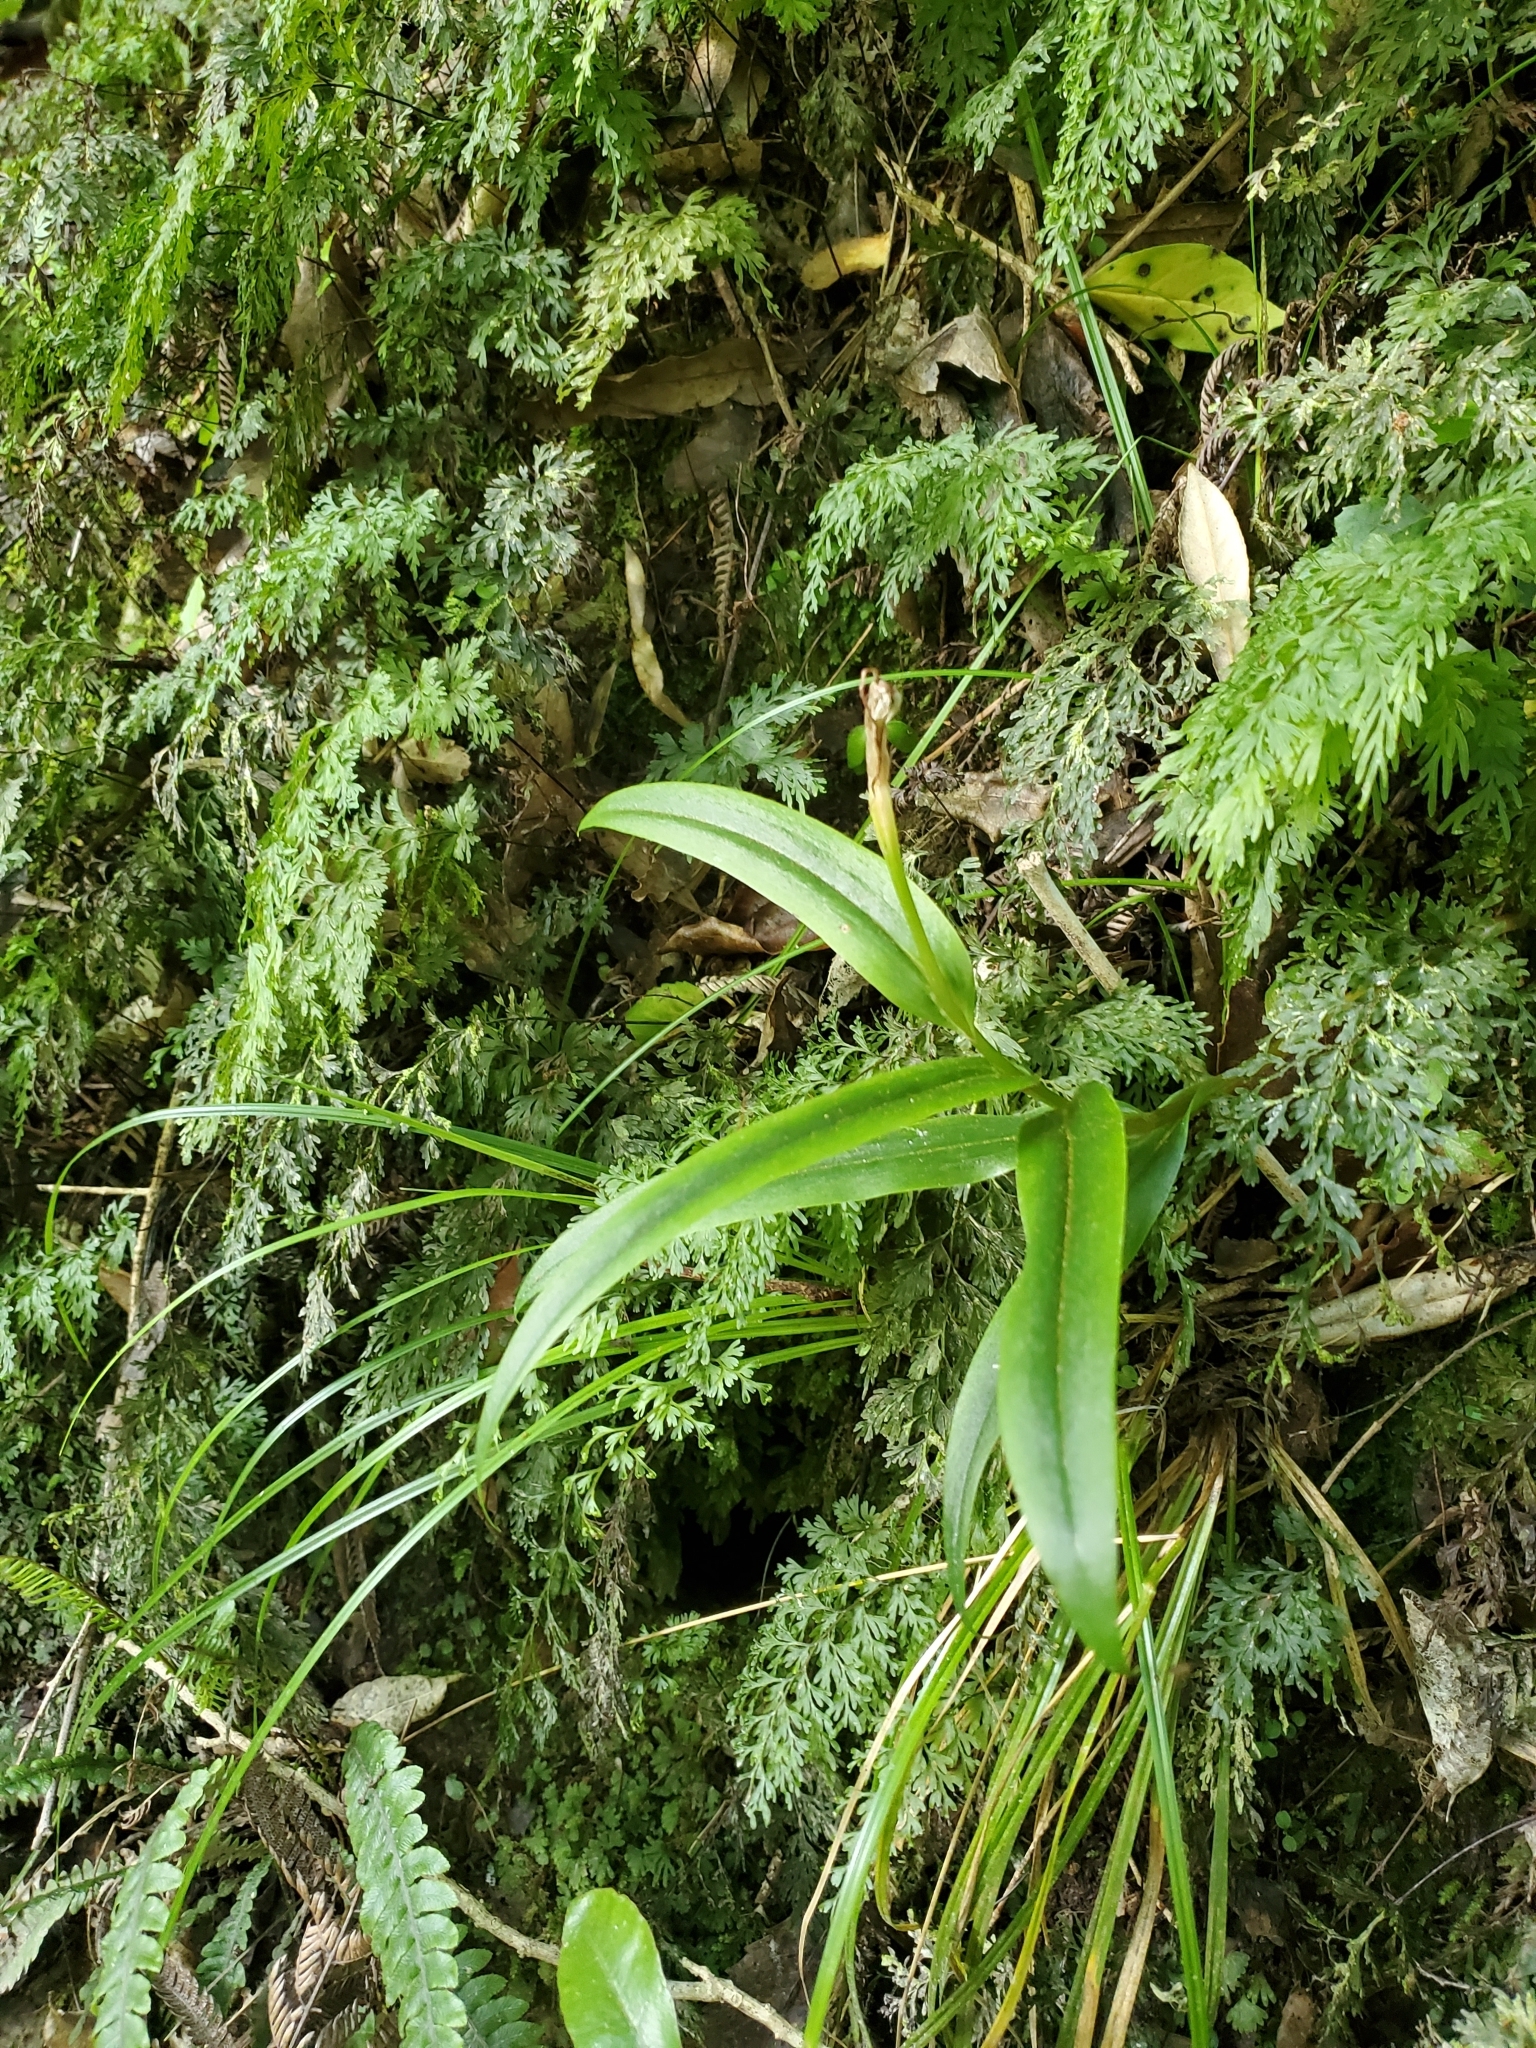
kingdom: Plantae
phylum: Tracheophyta
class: Liliopsida
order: Asparagales
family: Orchidaceae
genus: Pterostylis
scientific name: Pterostylis banksii
